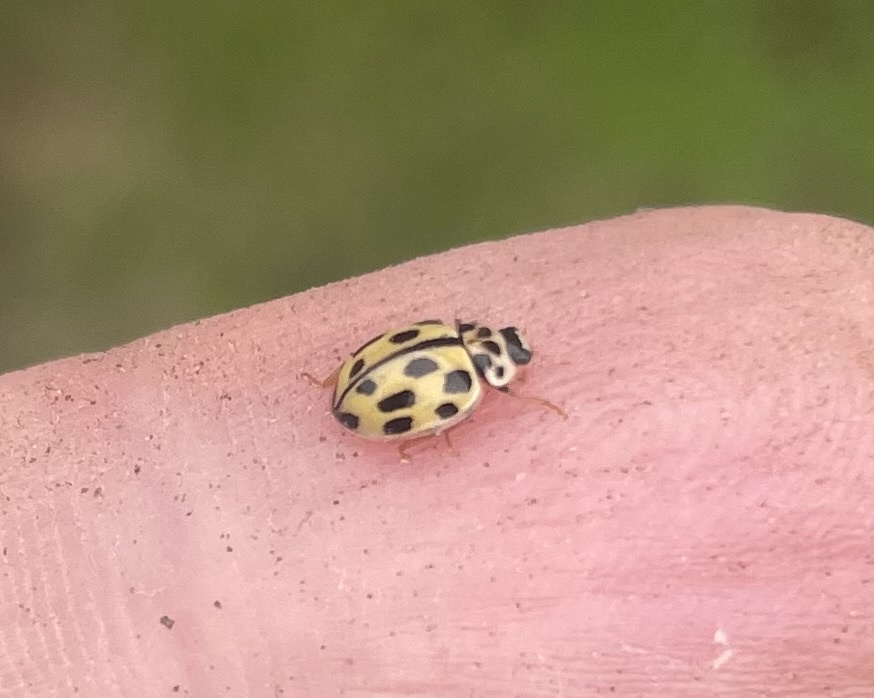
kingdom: Animalia
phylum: Arthropoda
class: Insecta
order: Coleoptera
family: Coccinellidae
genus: Propylaea
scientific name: Propylaea quatuordecimpunctata
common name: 14-spotted ladybird beetle
